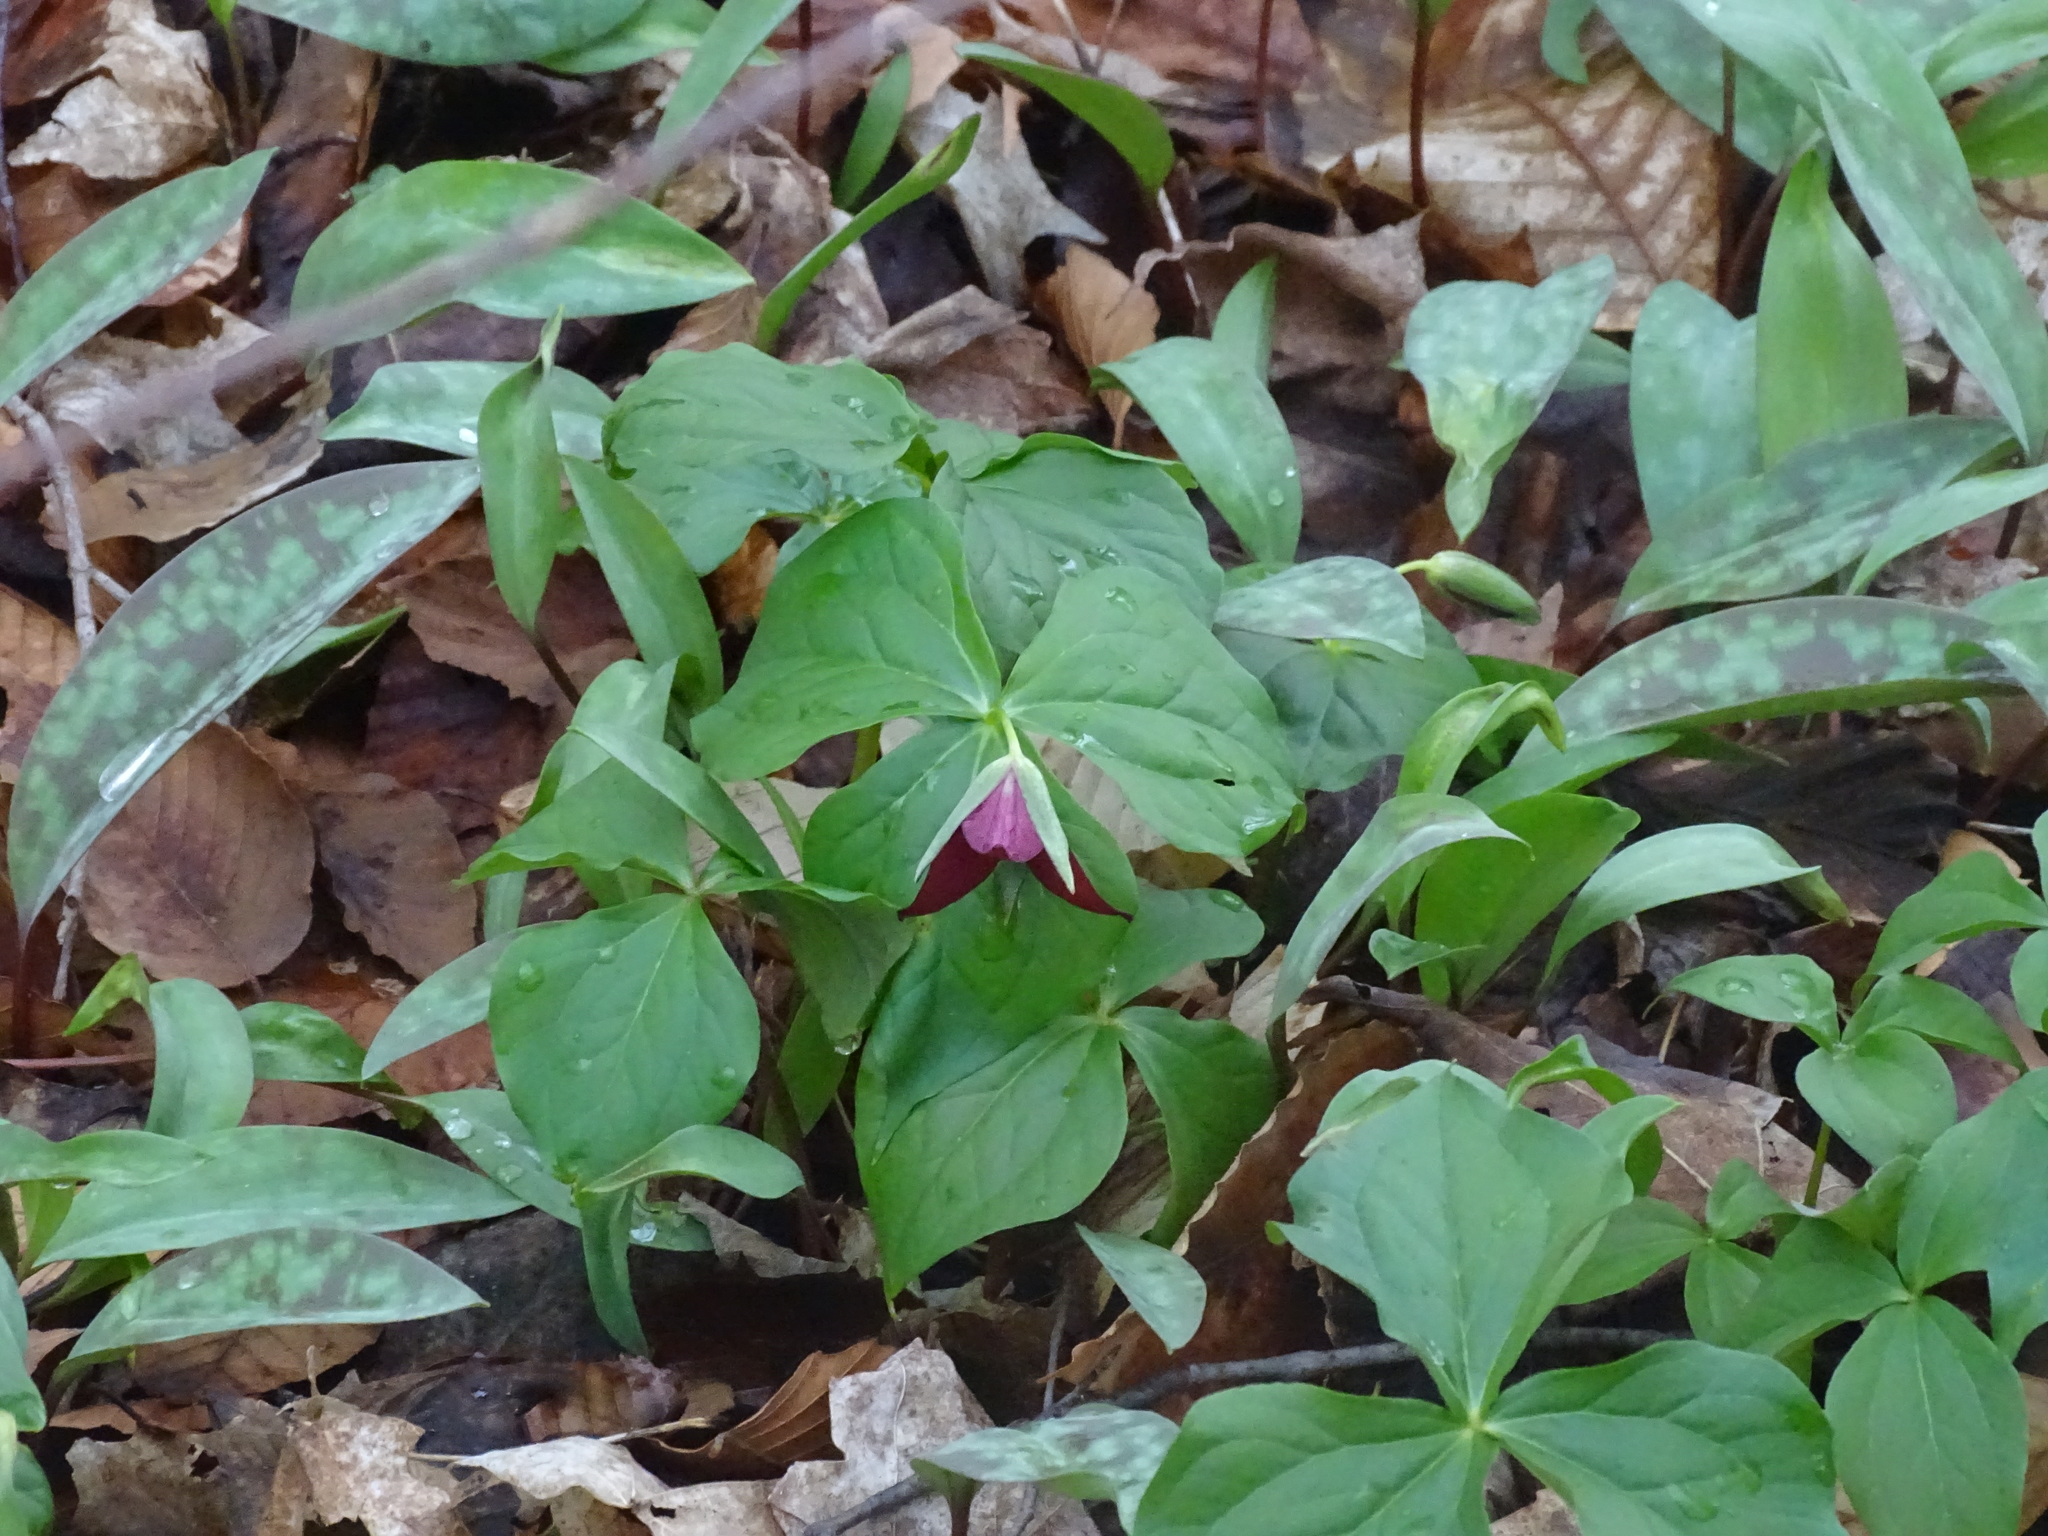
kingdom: Plantae
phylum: Tracheophyta
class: Liliopsida
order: Liliales
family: Melanthiaceae
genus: Trillium
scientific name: Trillium erectum
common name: Purple trillium
